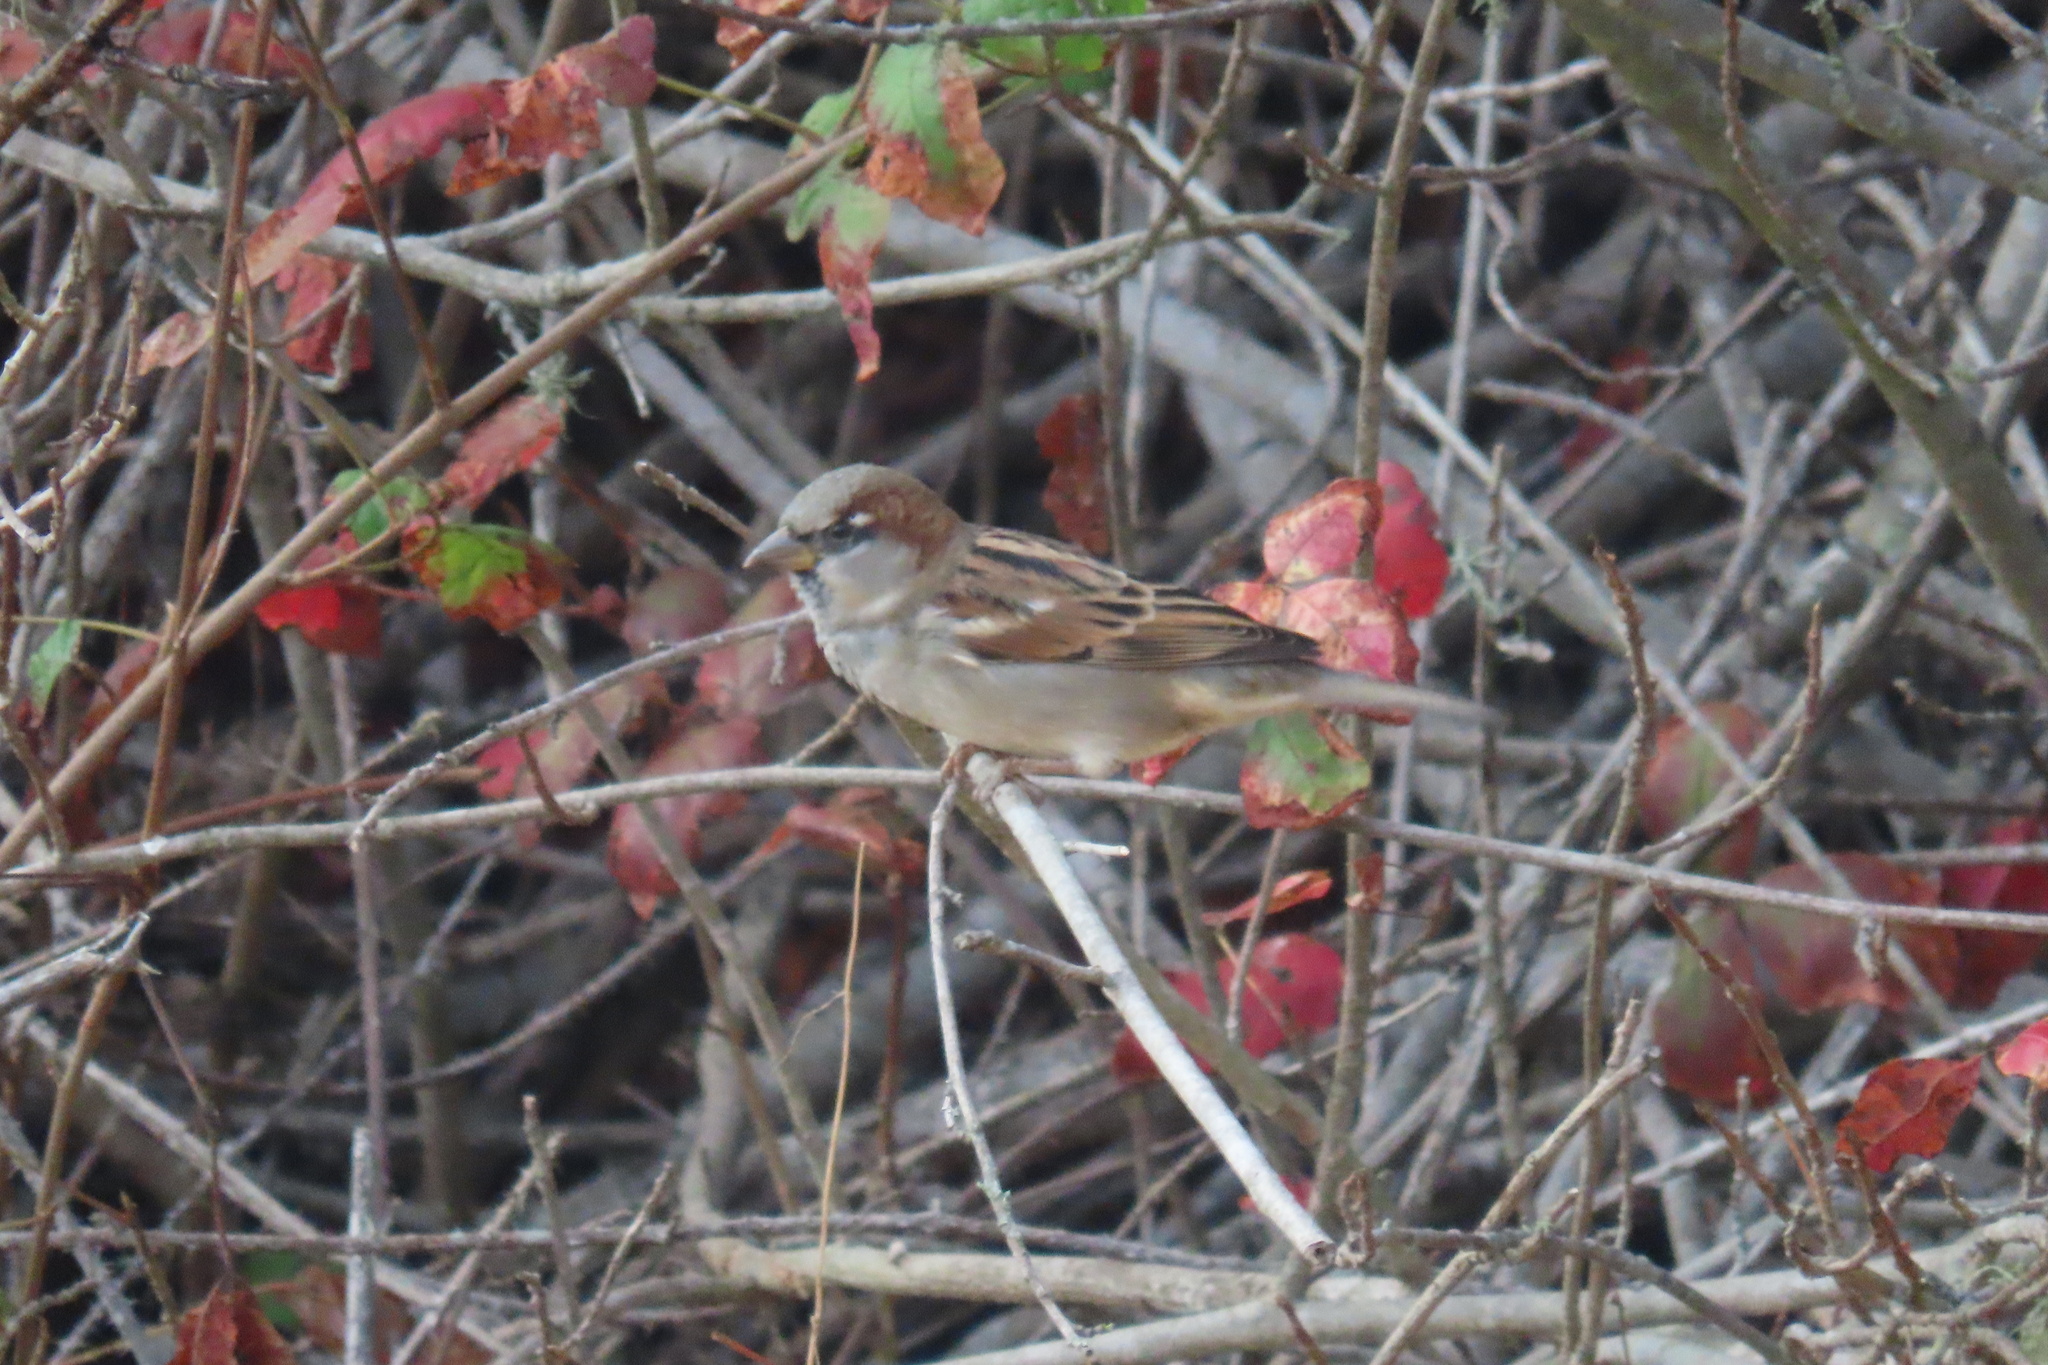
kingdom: Animalia
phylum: Chordata
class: Aves
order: Passeriformes
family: Passeridae
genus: Passer
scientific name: Passer domesticus
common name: House sparrow
